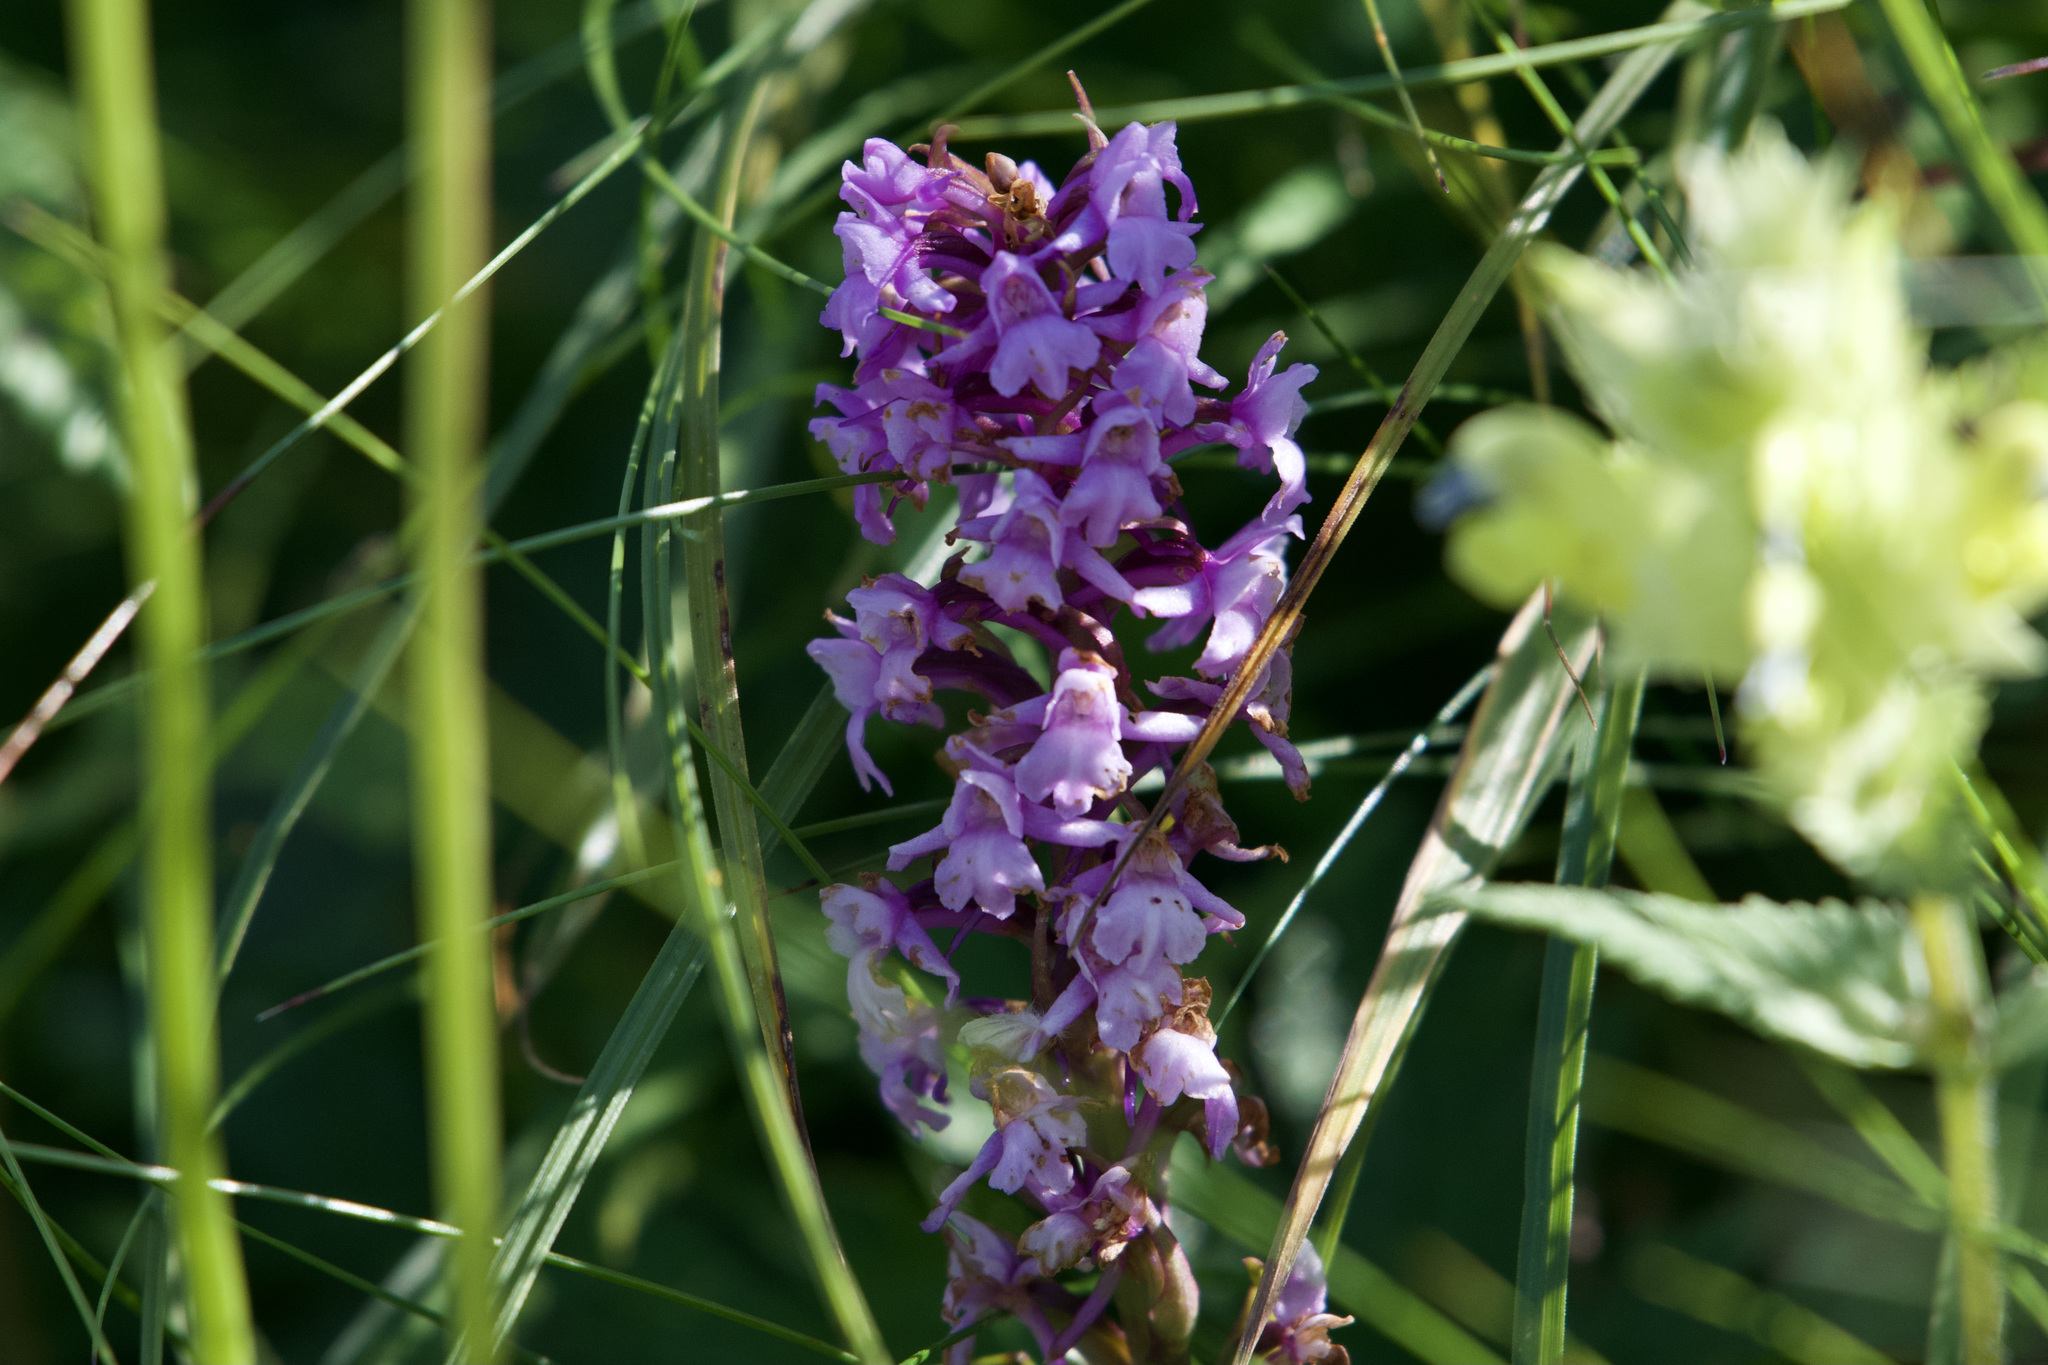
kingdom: Plantae
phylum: Tracheophyta
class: Liliopsida
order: Asparagales
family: Orchidaceae
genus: Gymnadenia
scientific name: Gymnadenia conopsea
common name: Fragrant orchid
